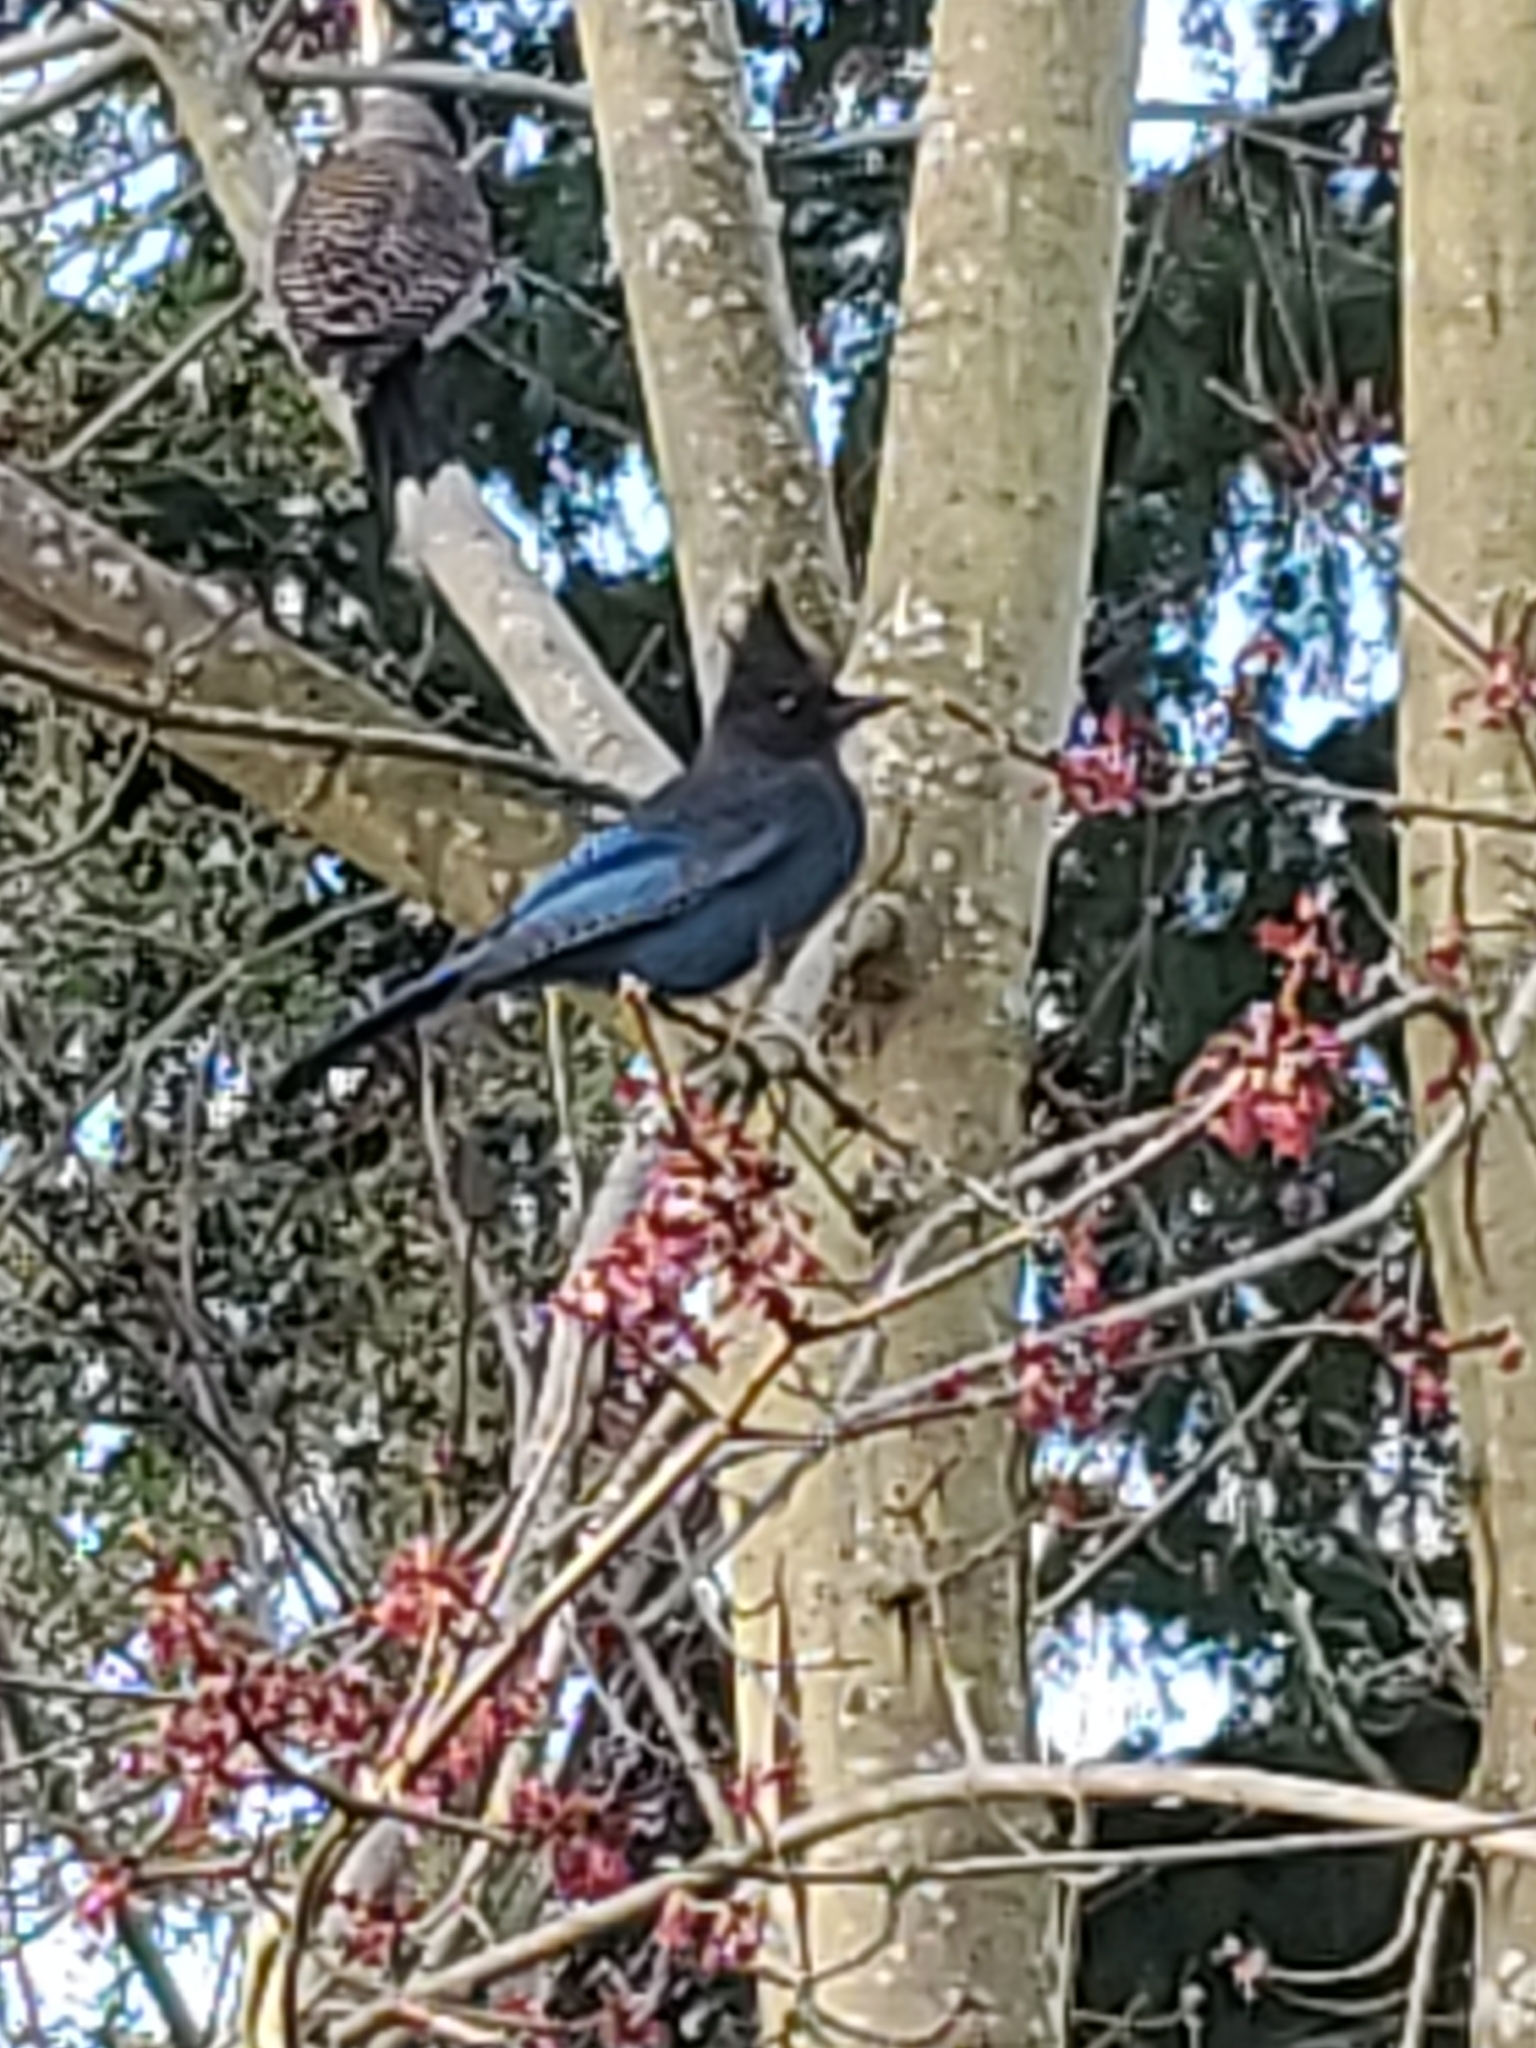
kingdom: Animalia
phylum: Chordata
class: Aves
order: Passeriformes
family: Corvidae
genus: Cyanocitta
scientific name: Cyanocitta stelleri
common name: Steller's jay
